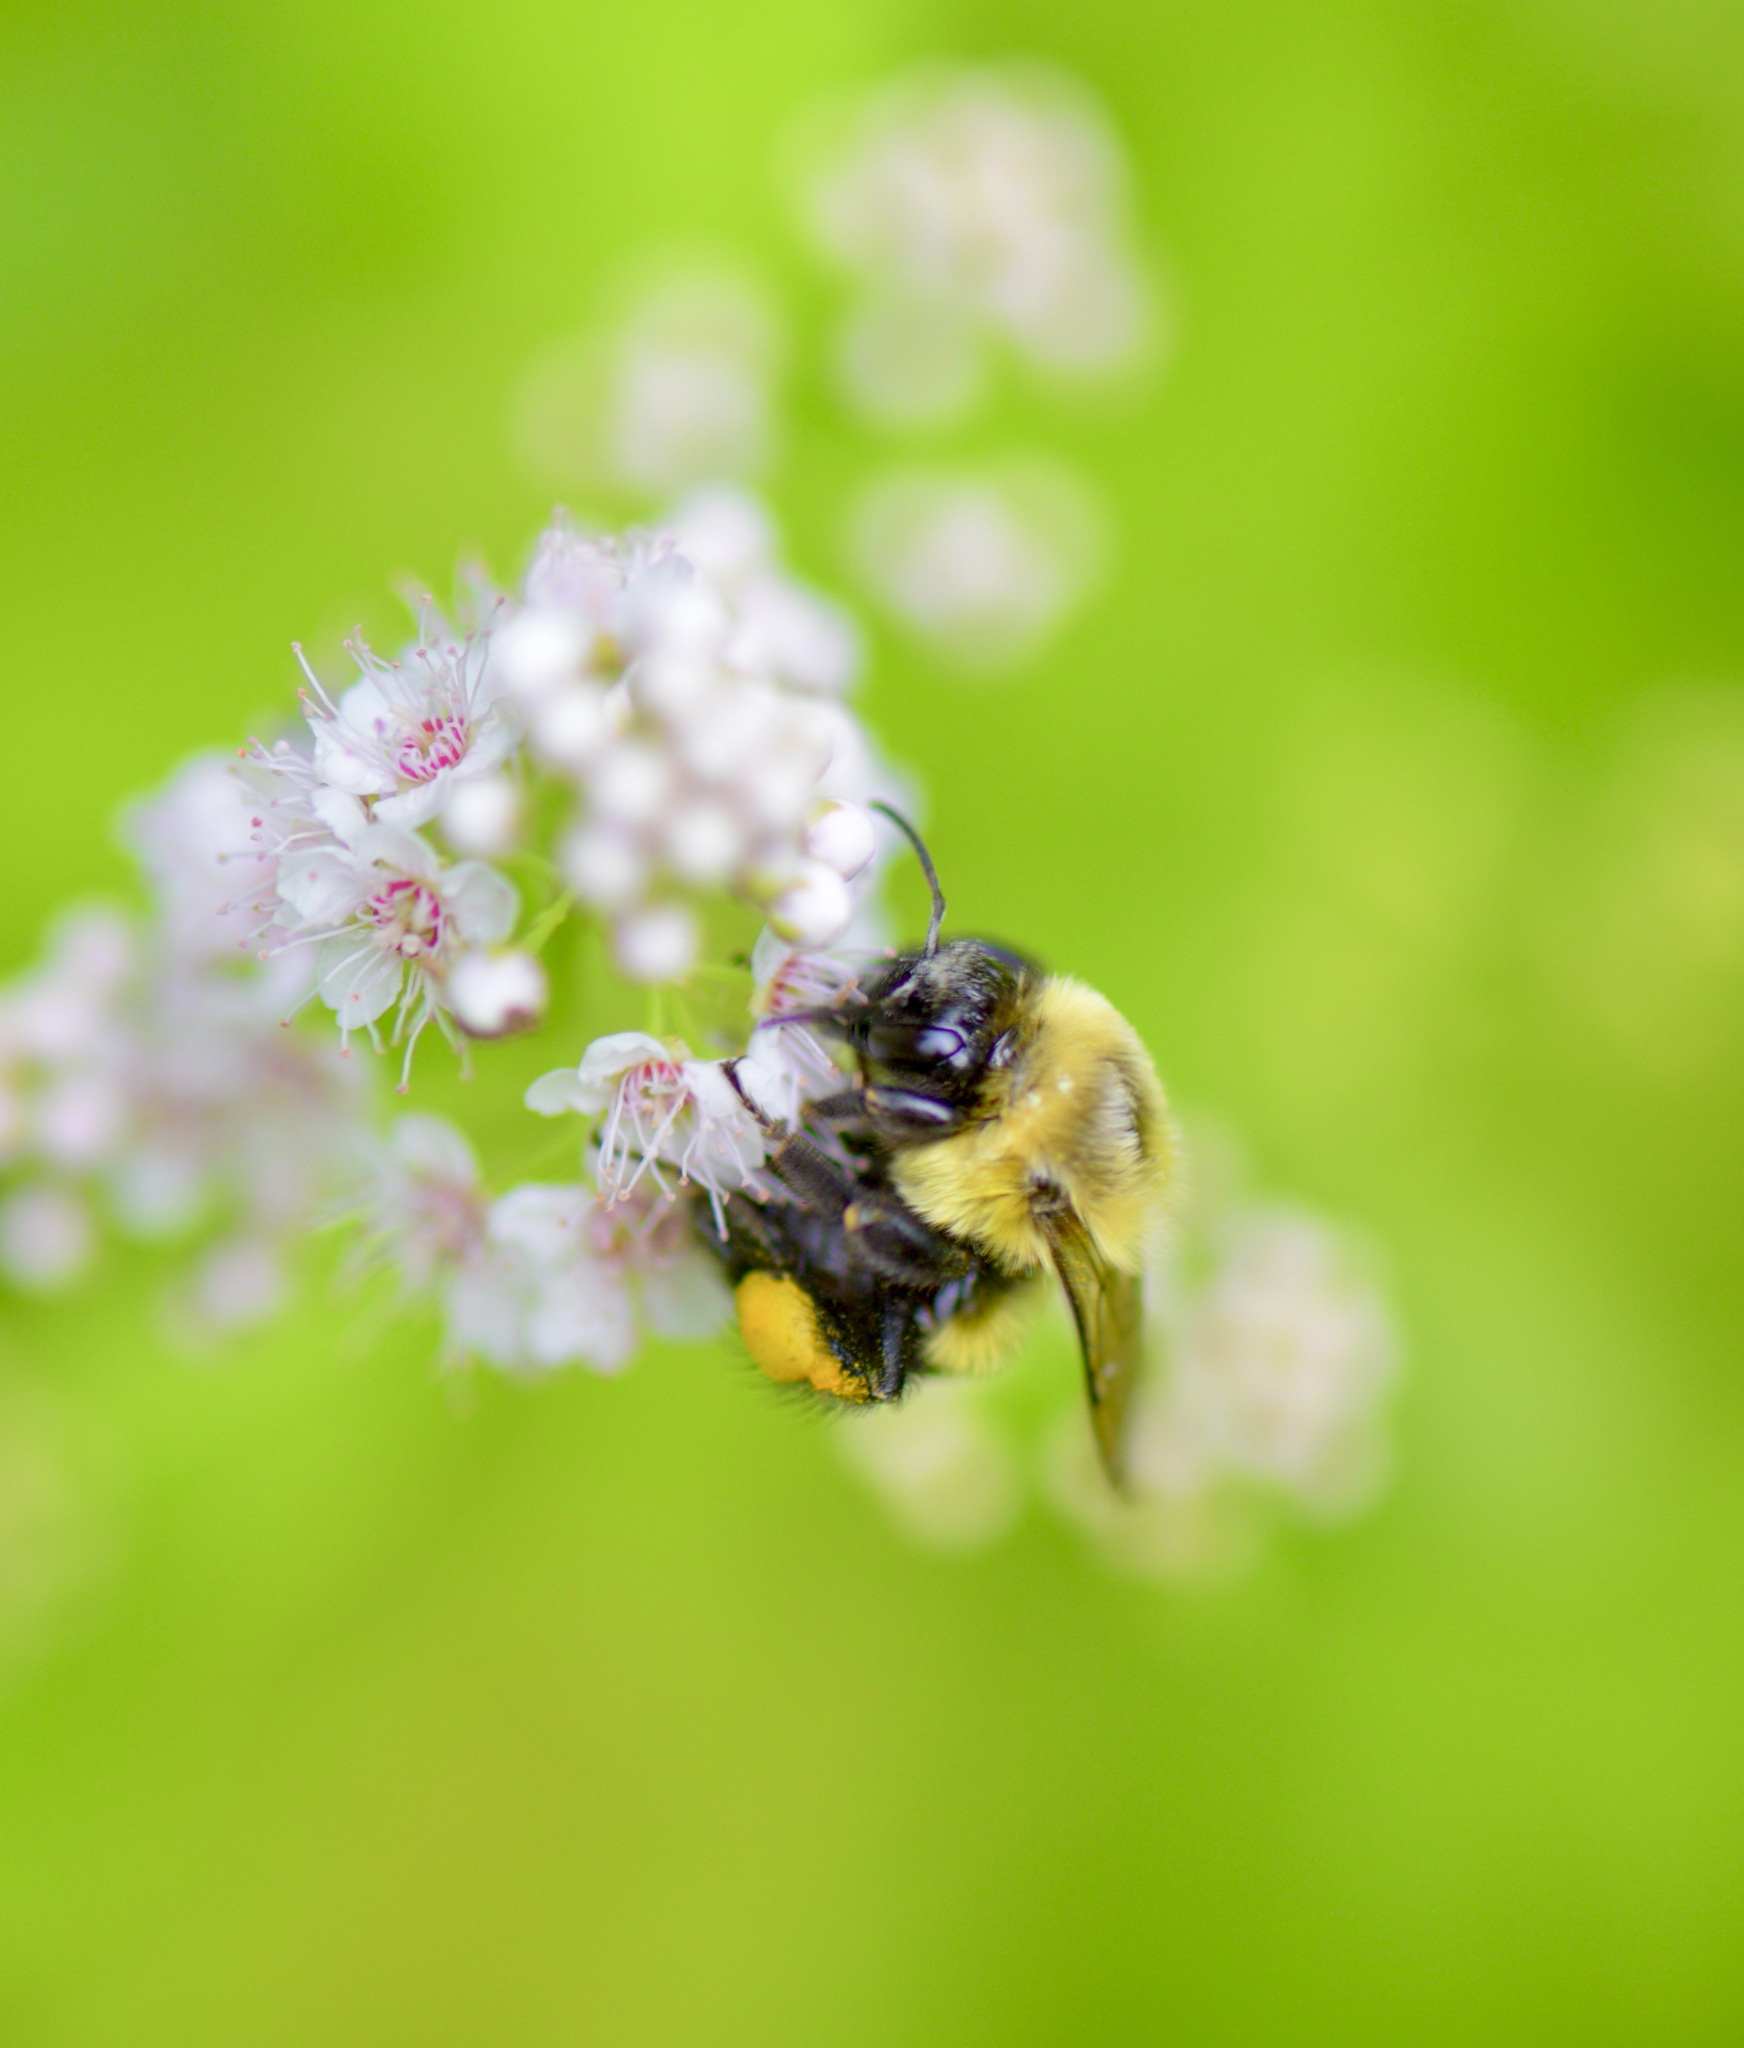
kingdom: Animalia
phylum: Arthropoda
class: Insecta
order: Hymenoptera
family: Apidae
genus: Bombus
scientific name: Bombus impatiens
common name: Common eastern bumble bee
